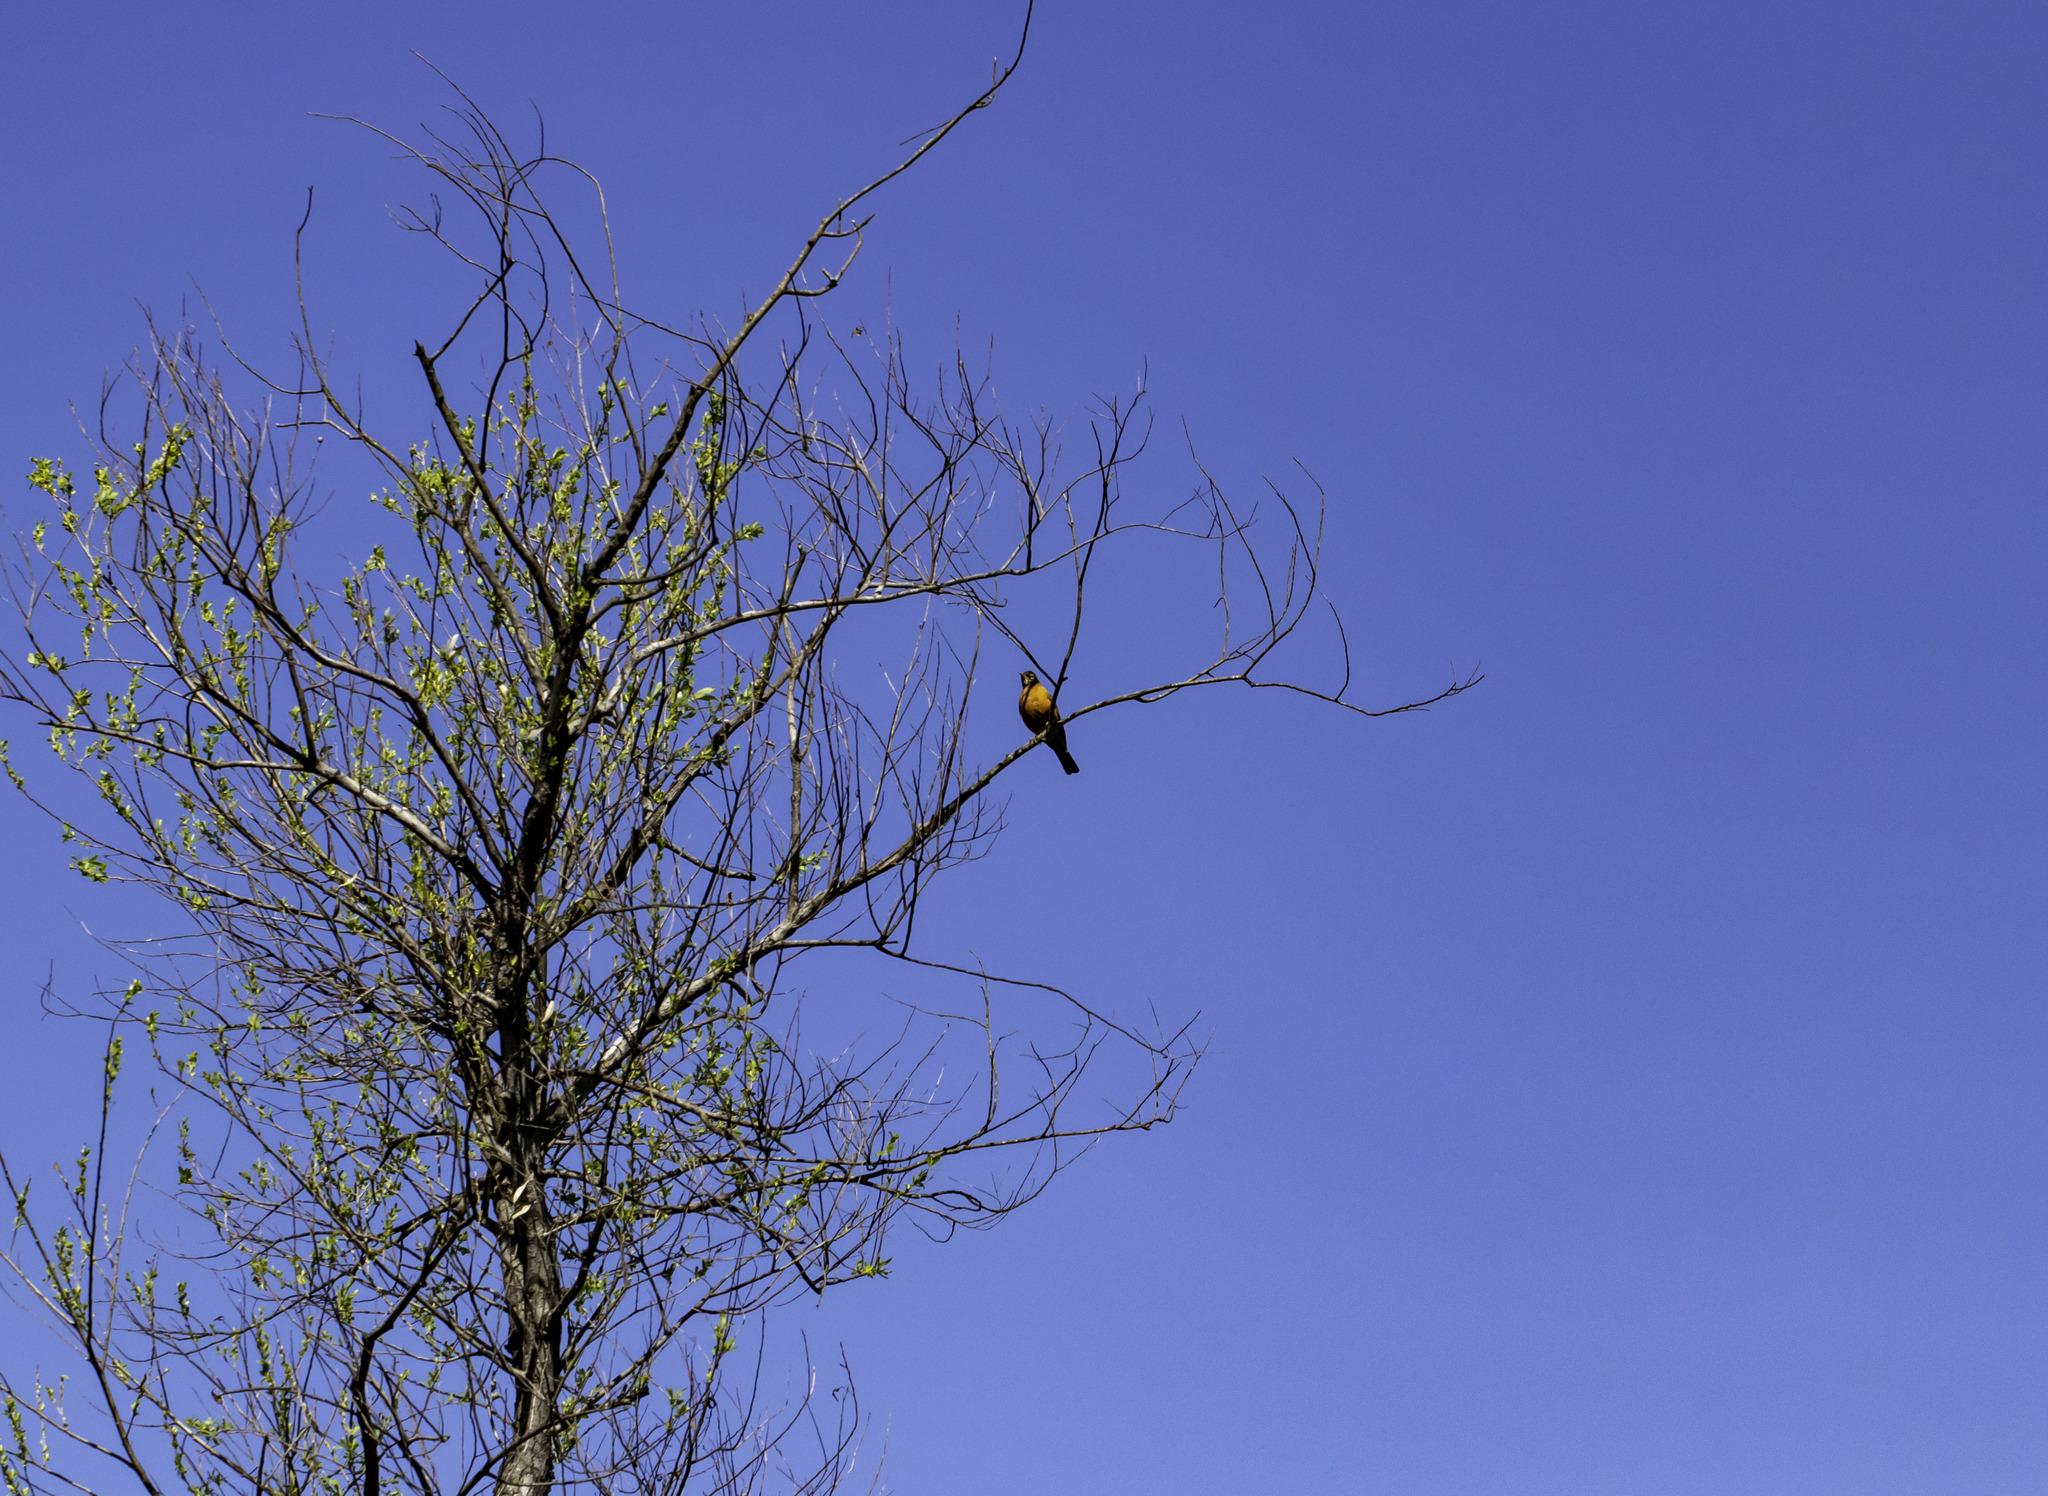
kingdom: Animalia
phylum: Chordata
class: Aves
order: Passeriformes
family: Turdidae
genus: Turdus
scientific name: Turdus migratorius
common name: American robin
